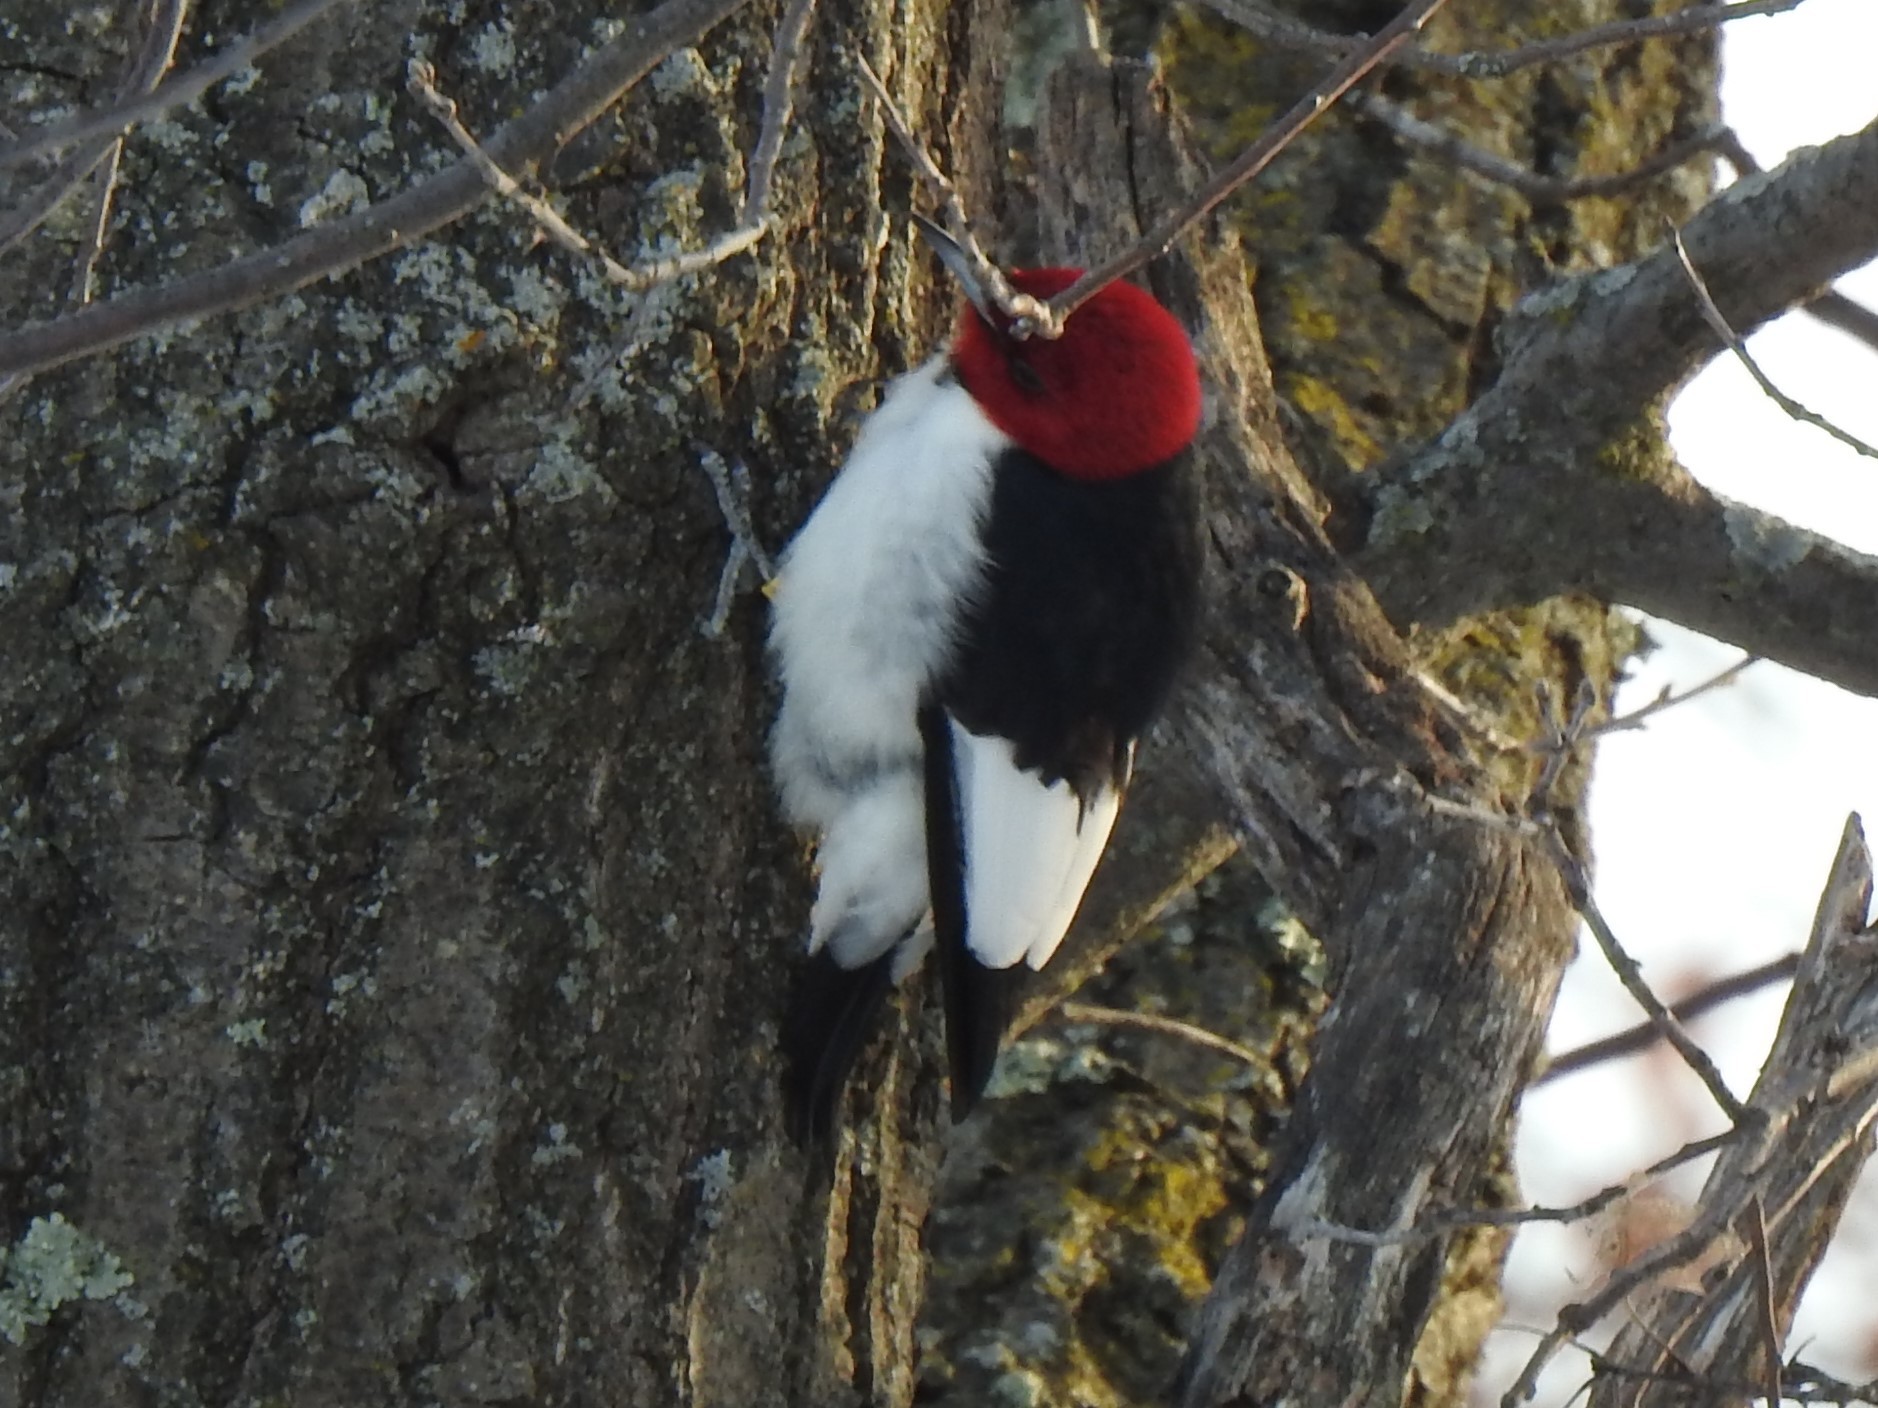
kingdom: Animalia
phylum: Chordata
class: Aves
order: Piciformes
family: Picidae
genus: Melanerpes
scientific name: Melanerpes erythrocephalus
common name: Red-headed woodpecker
